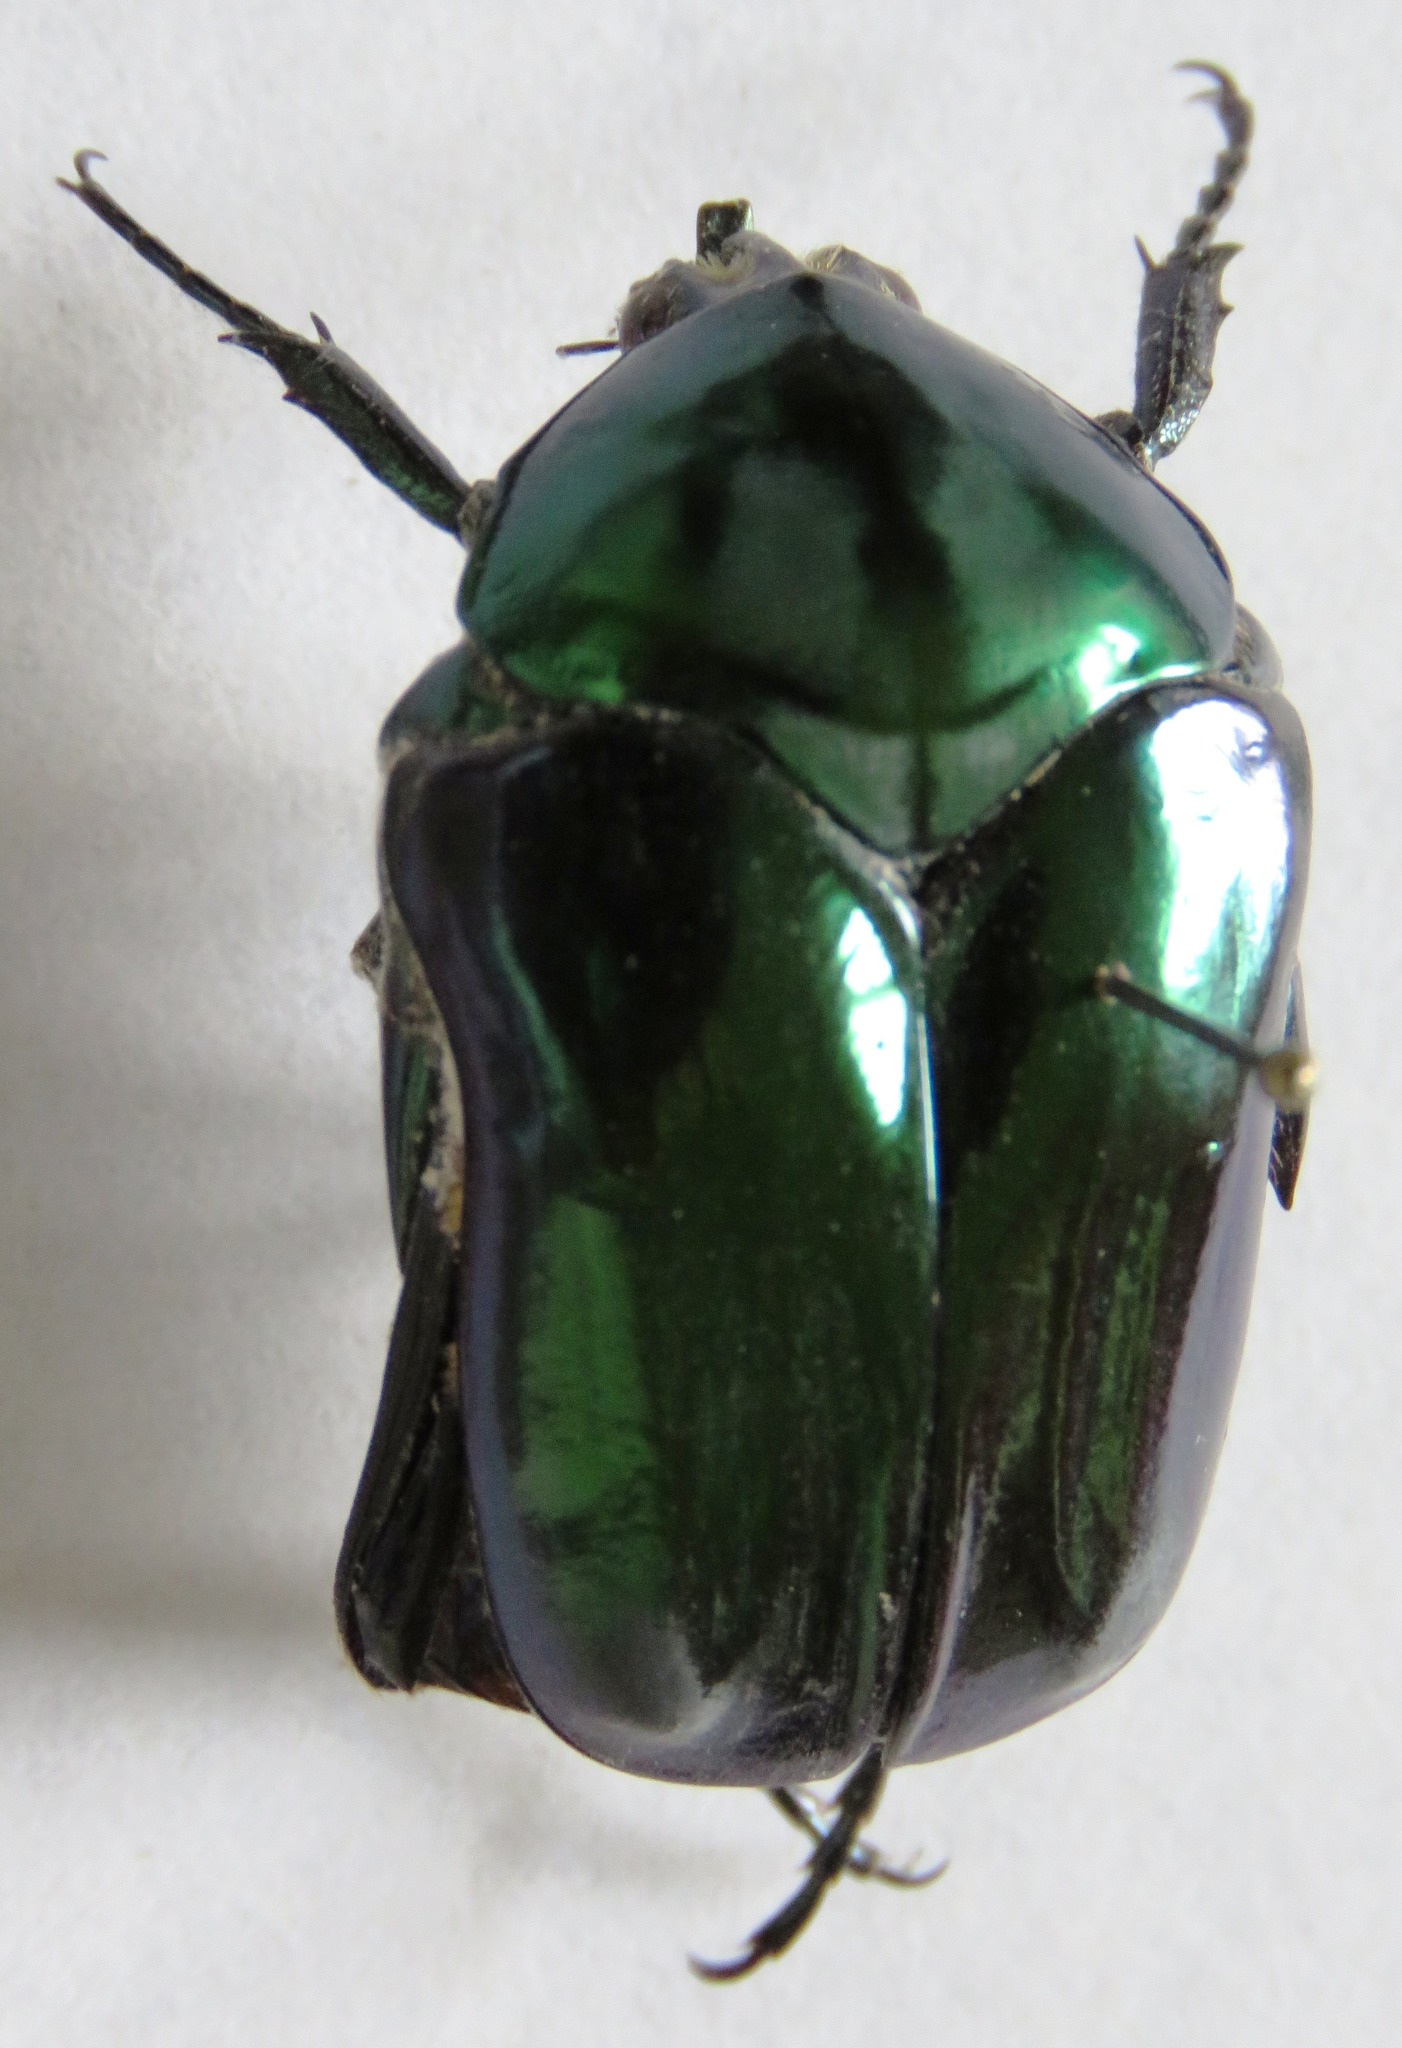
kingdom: Animalia
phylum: Arthropoda
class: Insecta
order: Coleoptera
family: Scarabaeidae
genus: Cotinis
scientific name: Cotinis mutabilis
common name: Figeater beetle
